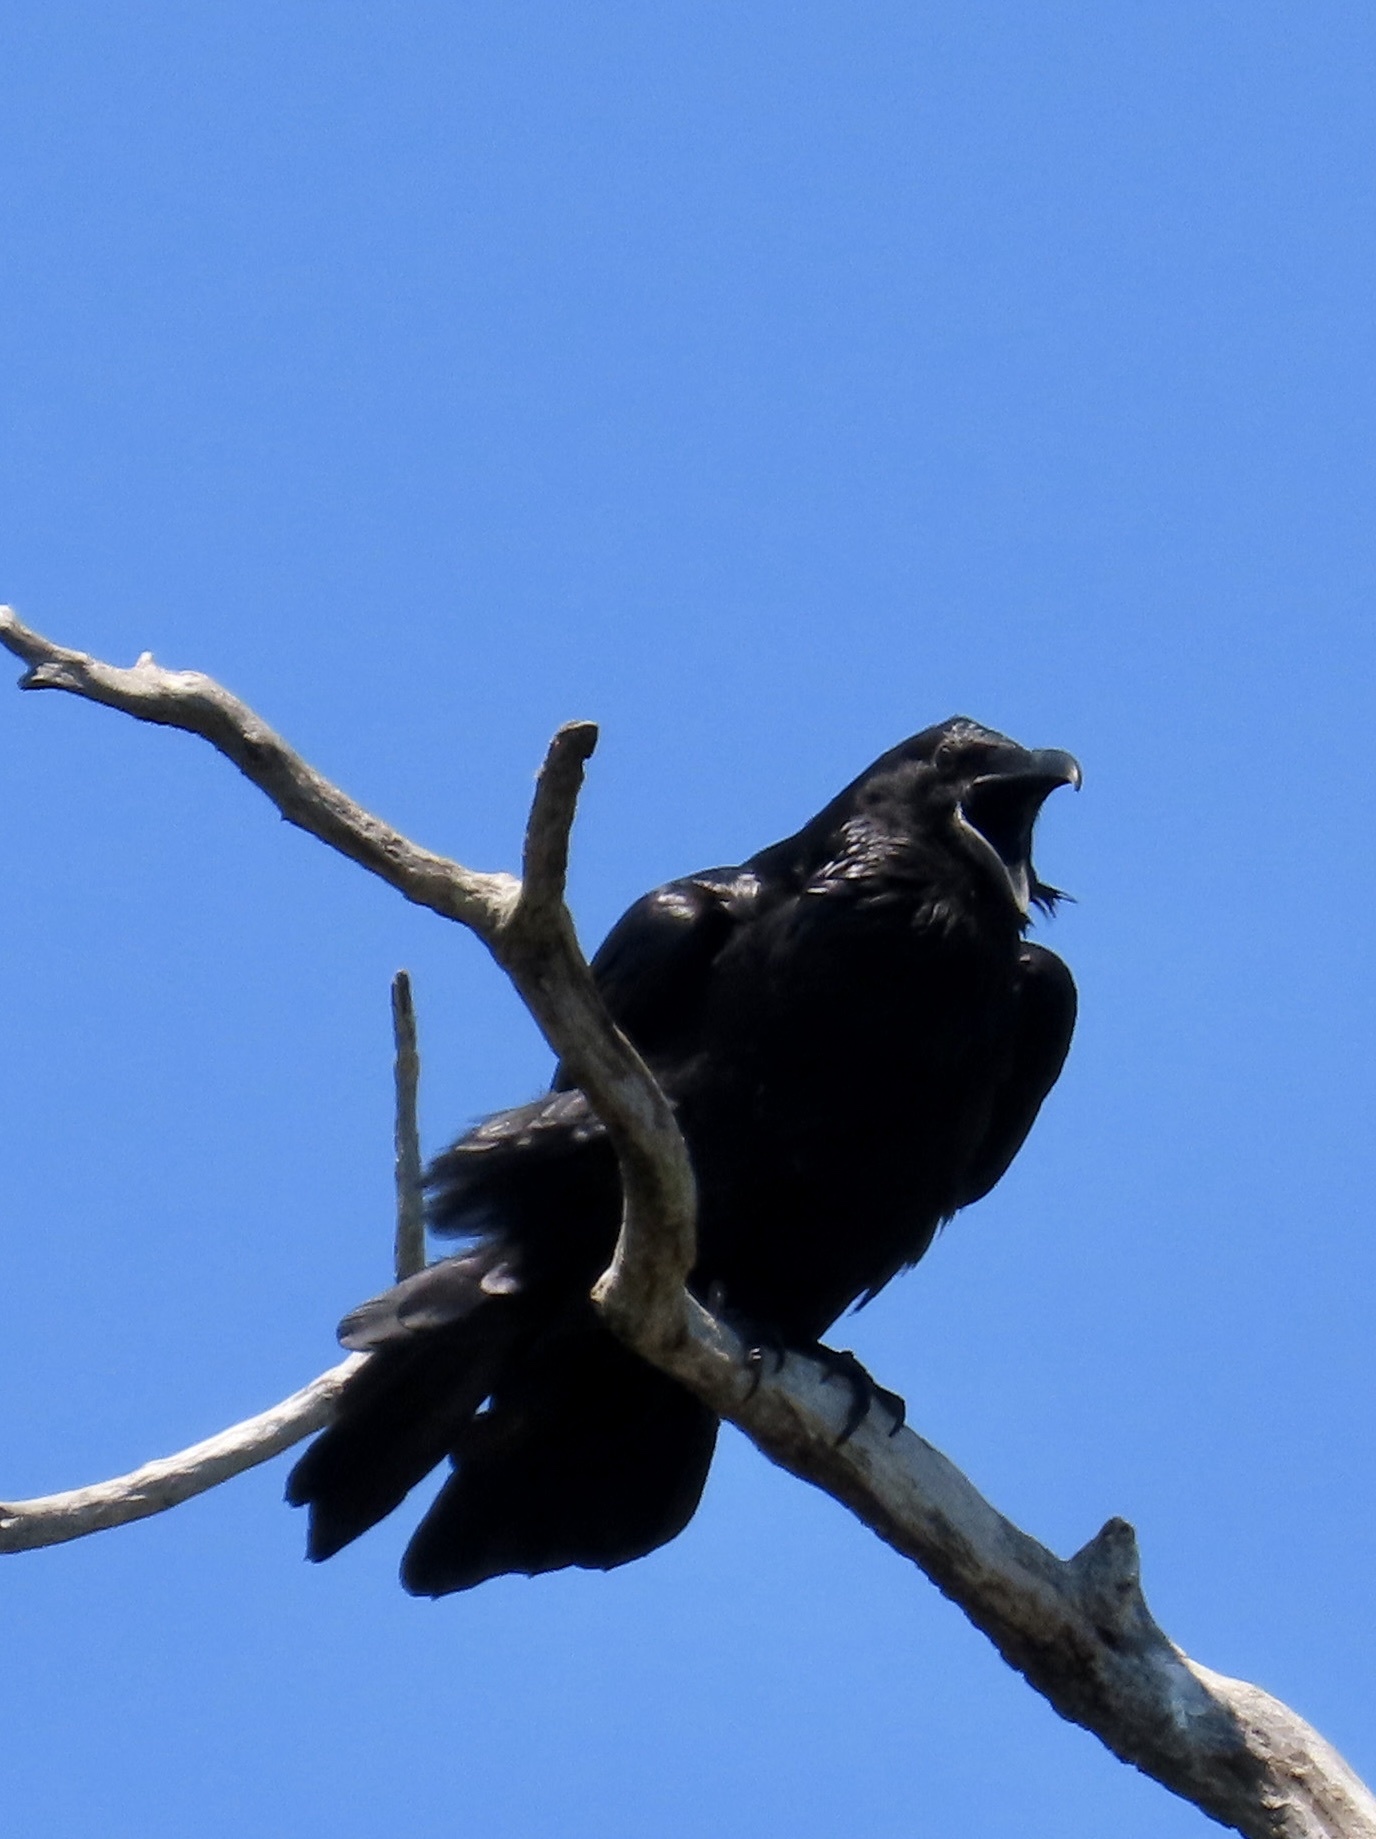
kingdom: Animalia
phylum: Chordata
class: Aves
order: Passeriformes
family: Corvidae
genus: Corvus
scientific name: Corvus corax
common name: Common raven
